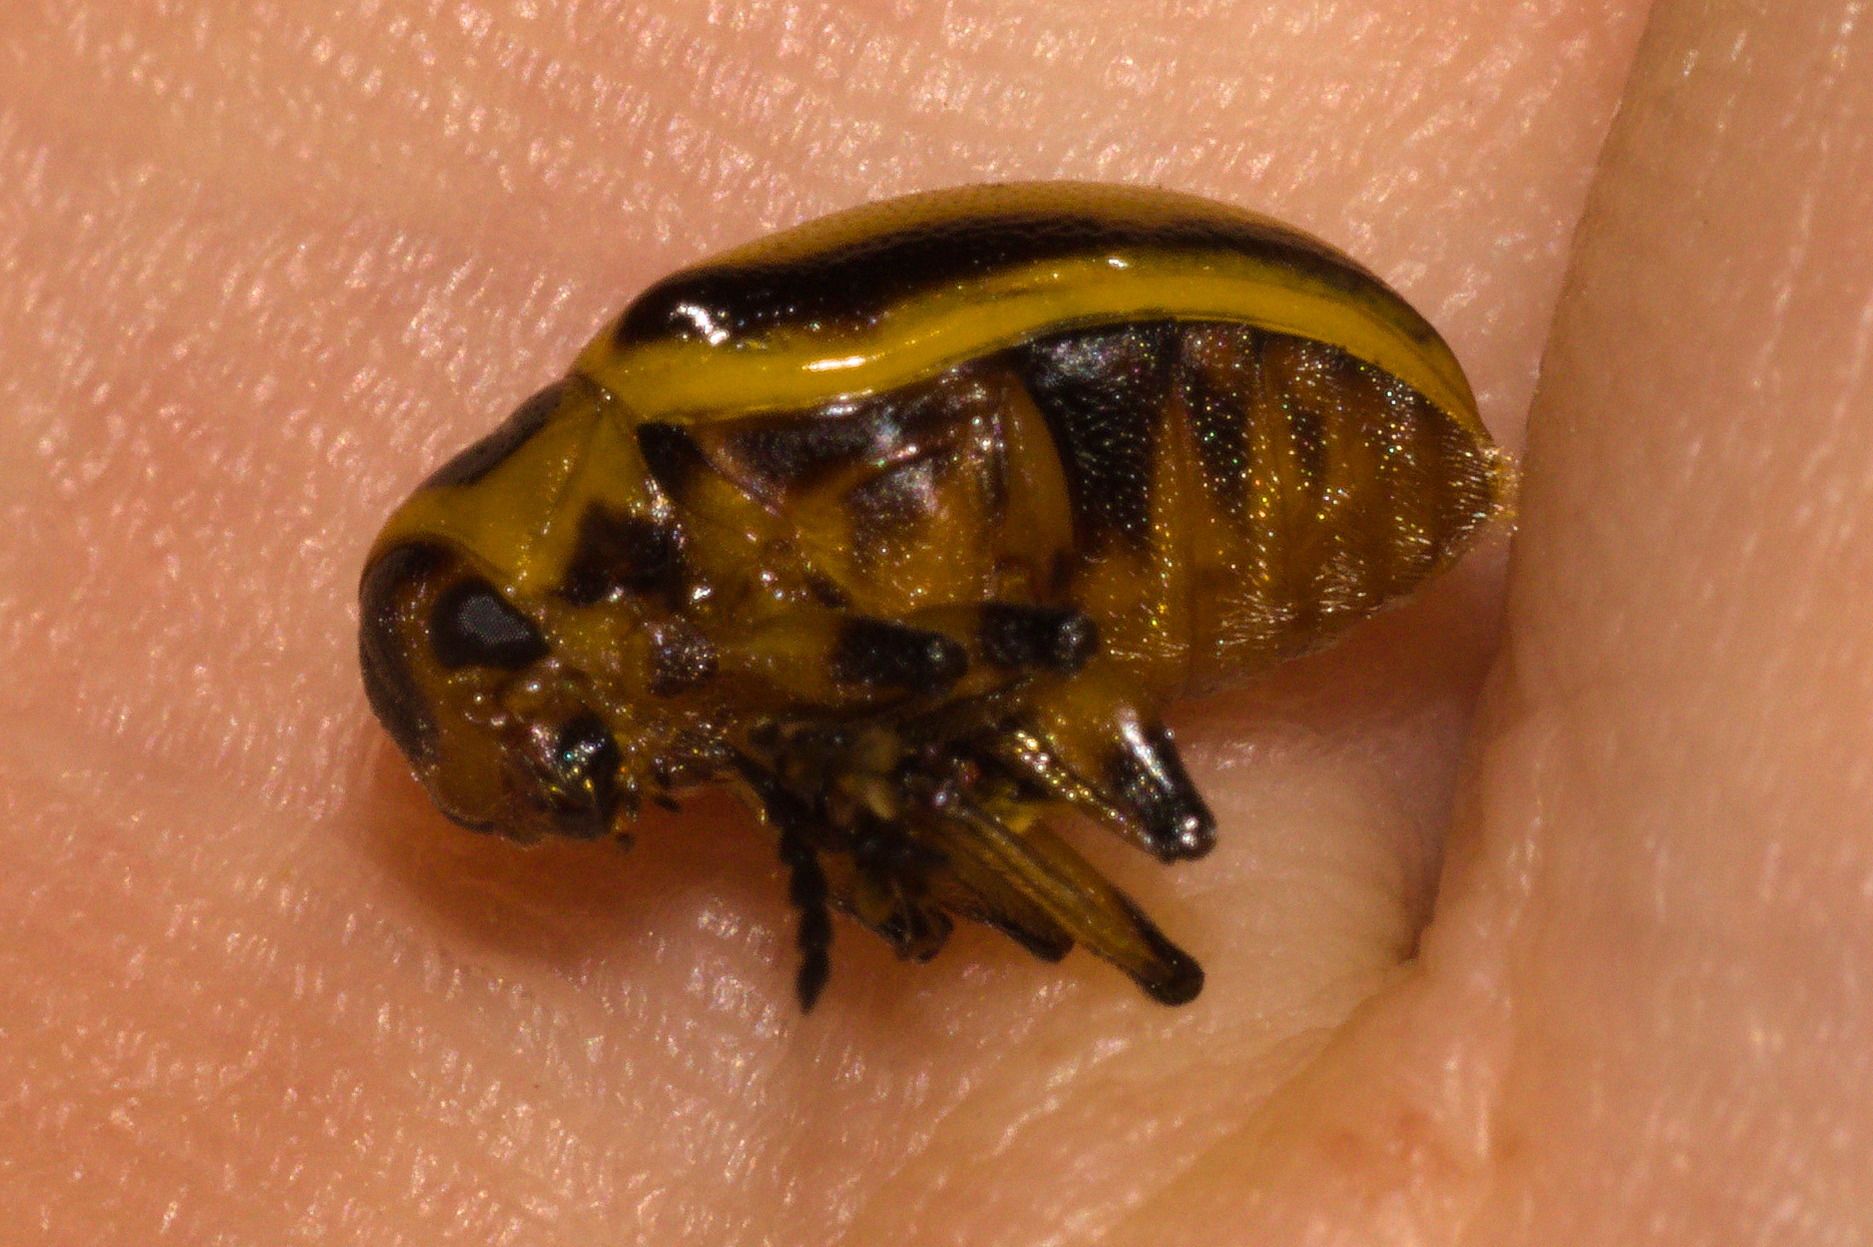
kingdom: Animalia
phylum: Arthropoda
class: Insecta
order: Coleoptera
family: Chrysomelidae
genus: Endocephalus
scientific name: Endocephalus
